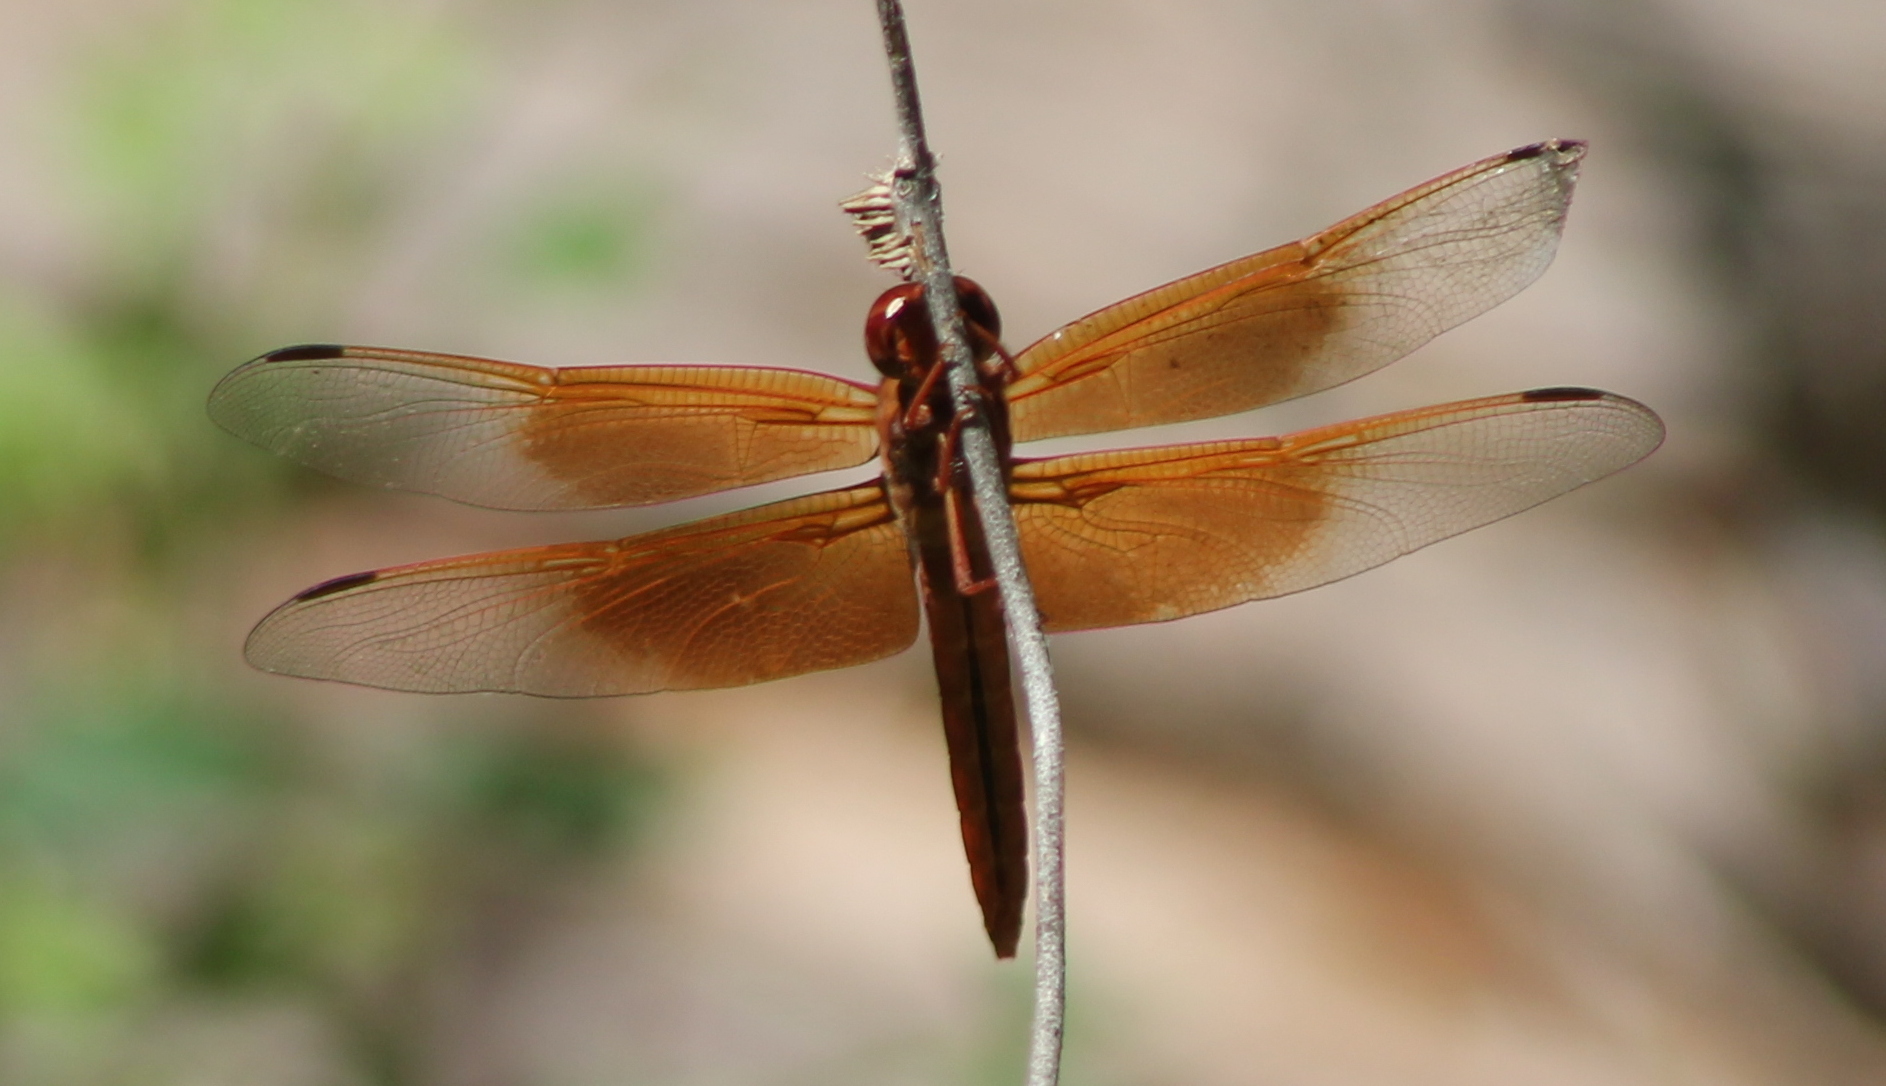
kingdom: Animalia
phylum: Arthropoda
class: Insecta
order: Odonata
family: Libellulidae
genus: Libellula
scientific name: Libellula saturata
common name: Flame skimmer
